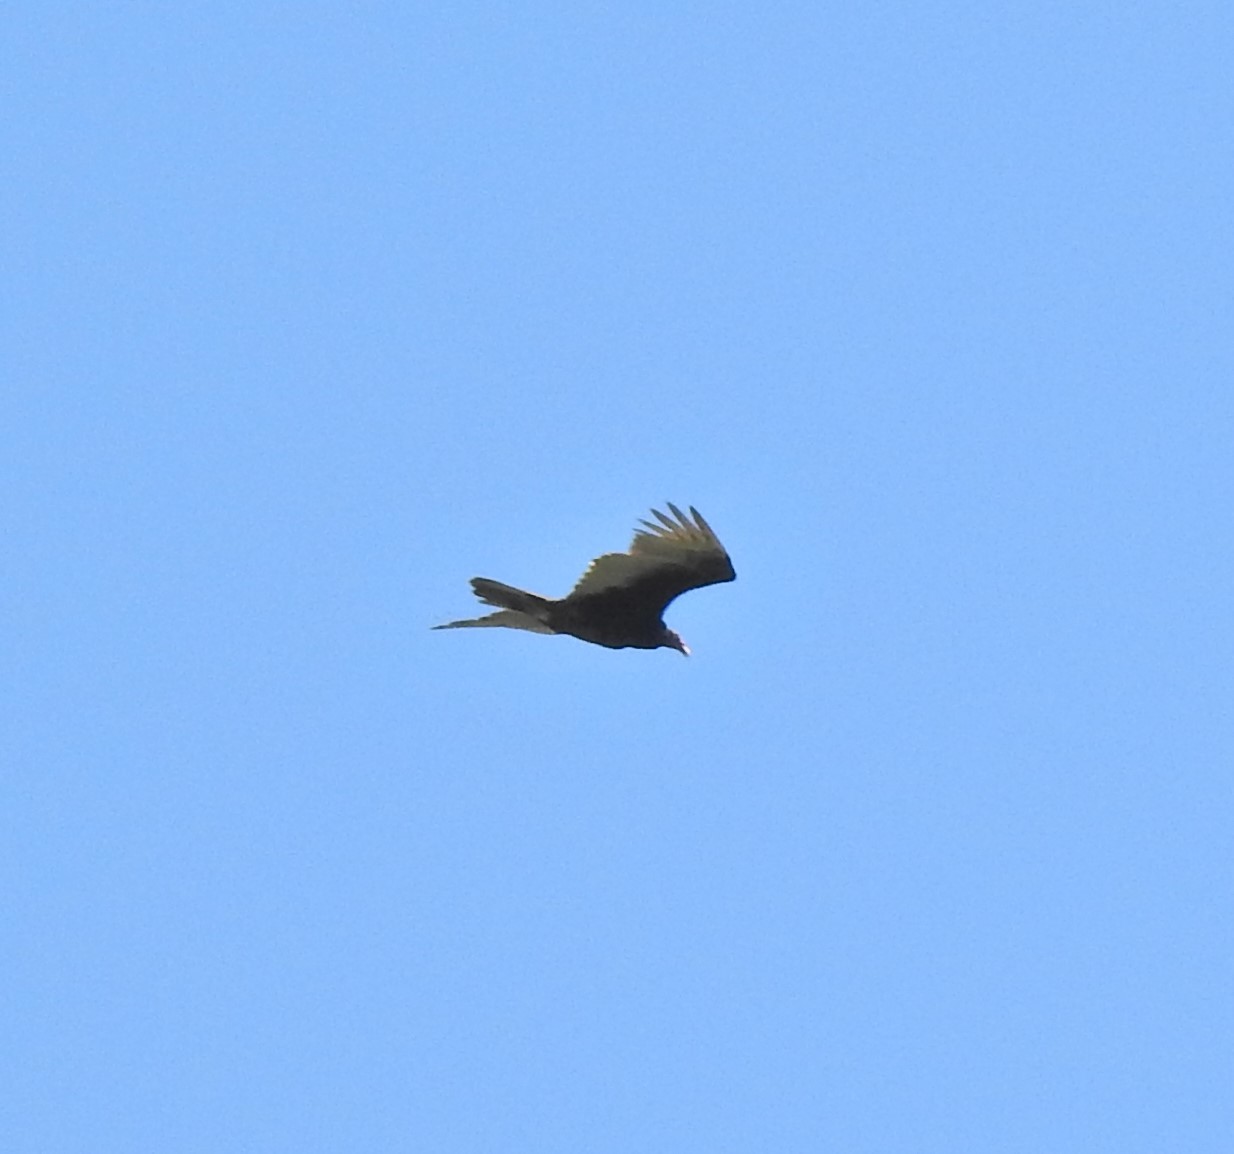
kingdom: Animalia
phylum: Chordata
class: Aves
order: Accipitriformes
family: Cathartidae
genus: Cathartes
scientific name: Cathartes aura
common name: Turkey vulture
